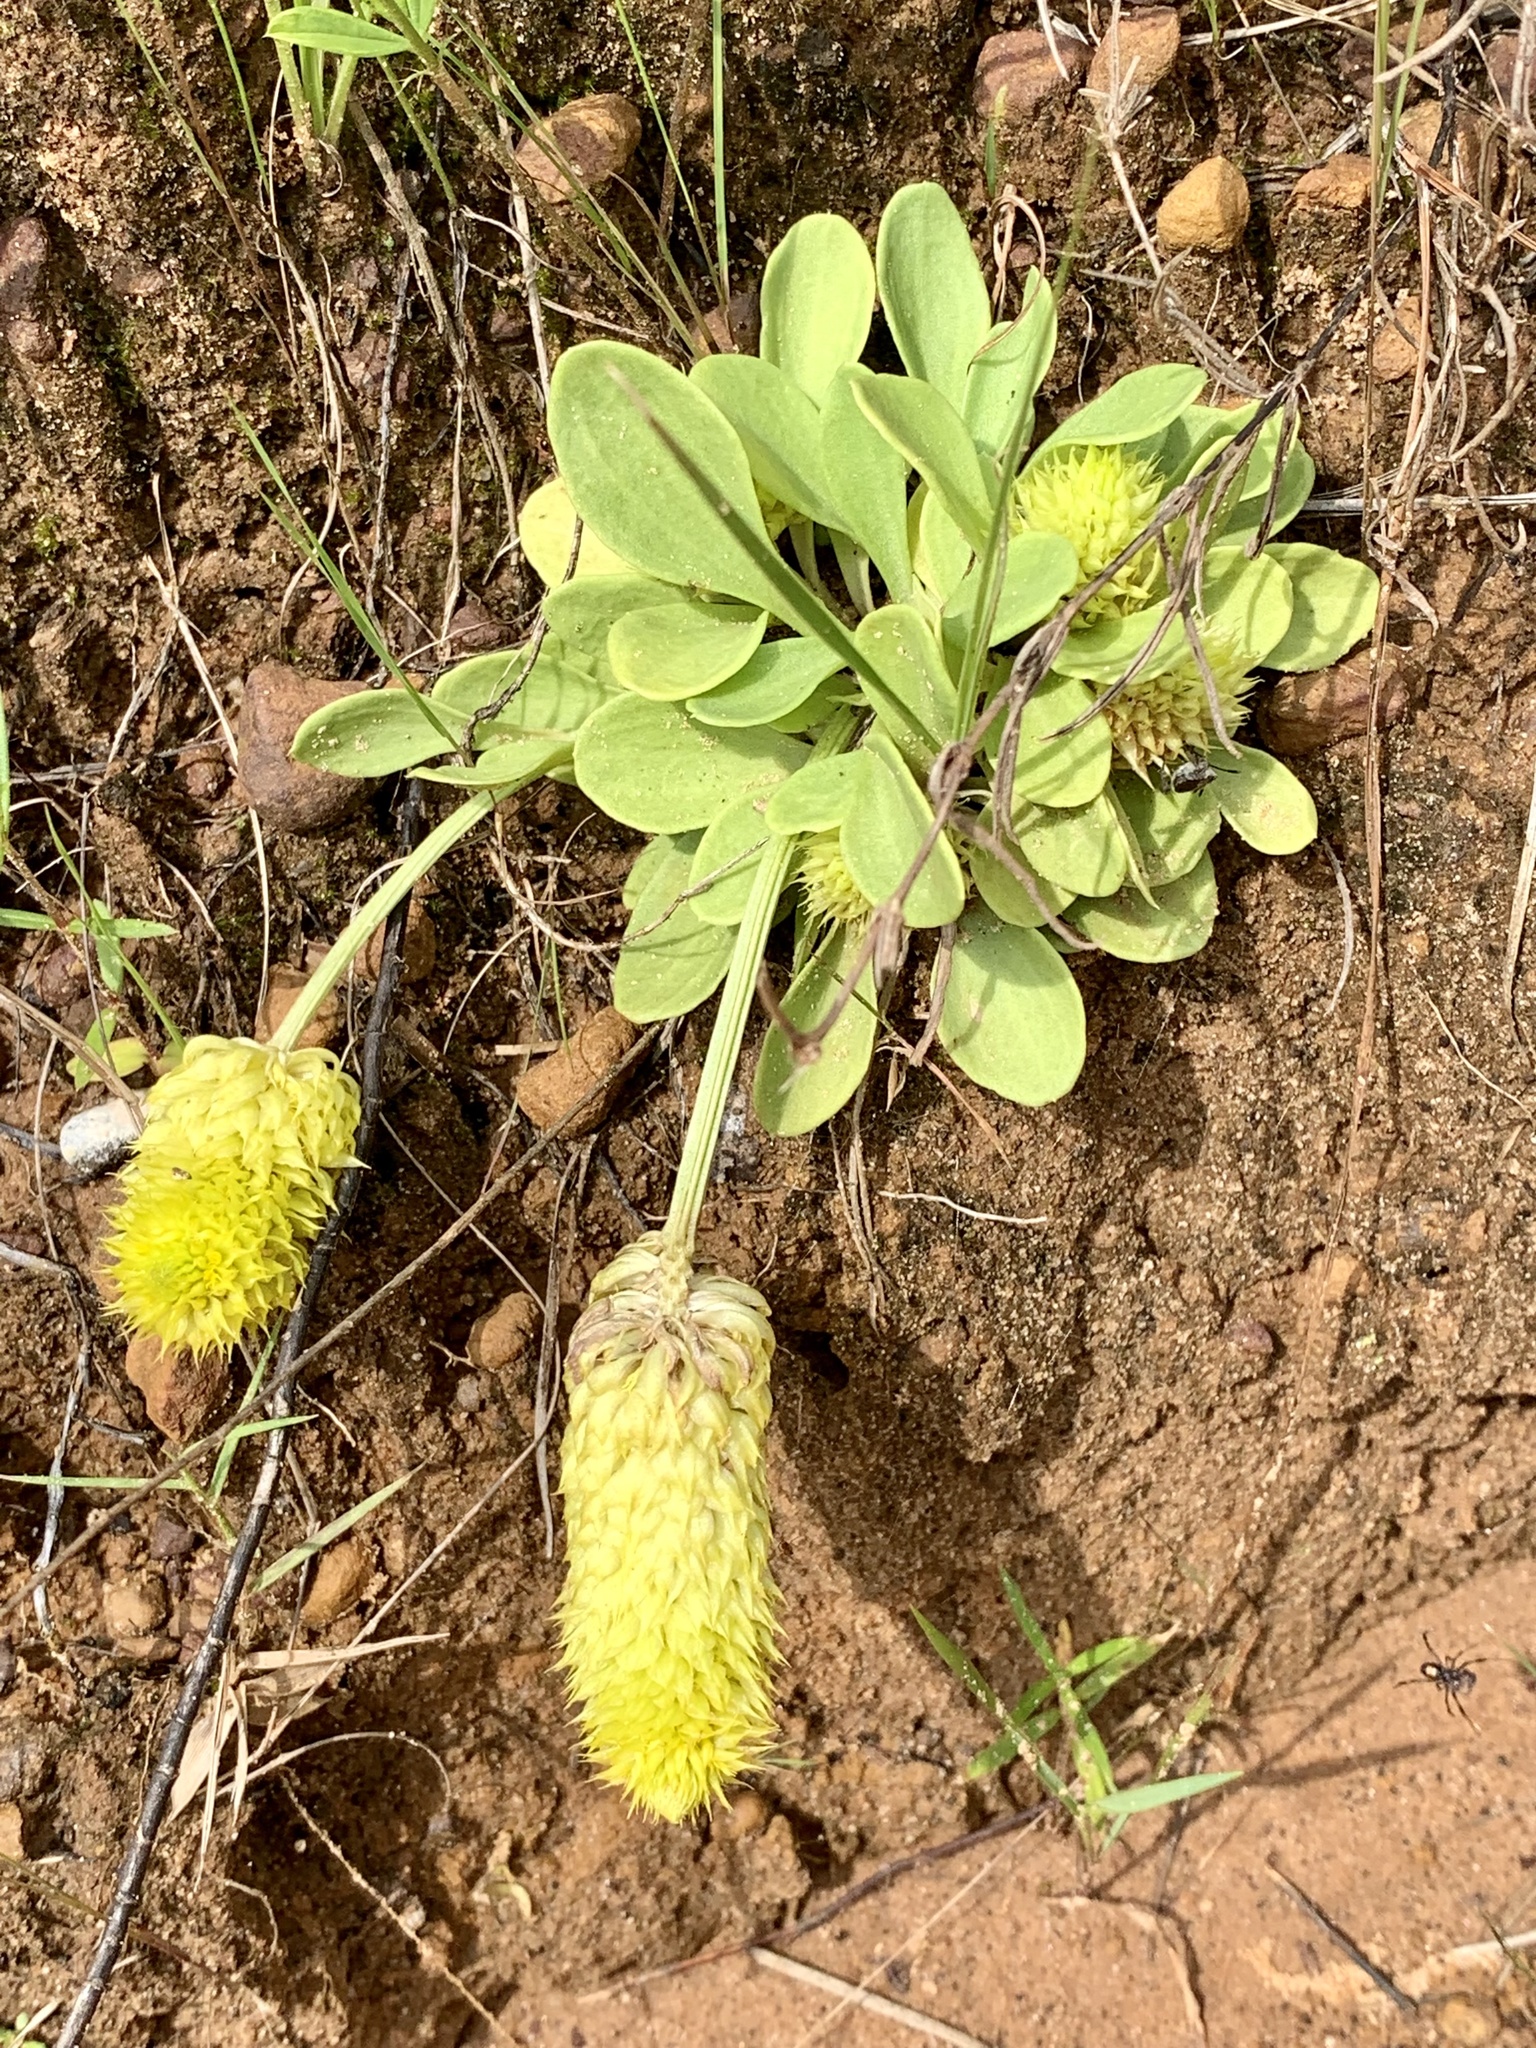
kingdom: Plantae
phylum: Tracheophyta
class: Magnoliopsida
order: Fabales
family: Polygalaceae
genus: Polygala
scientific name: Polygala nana
